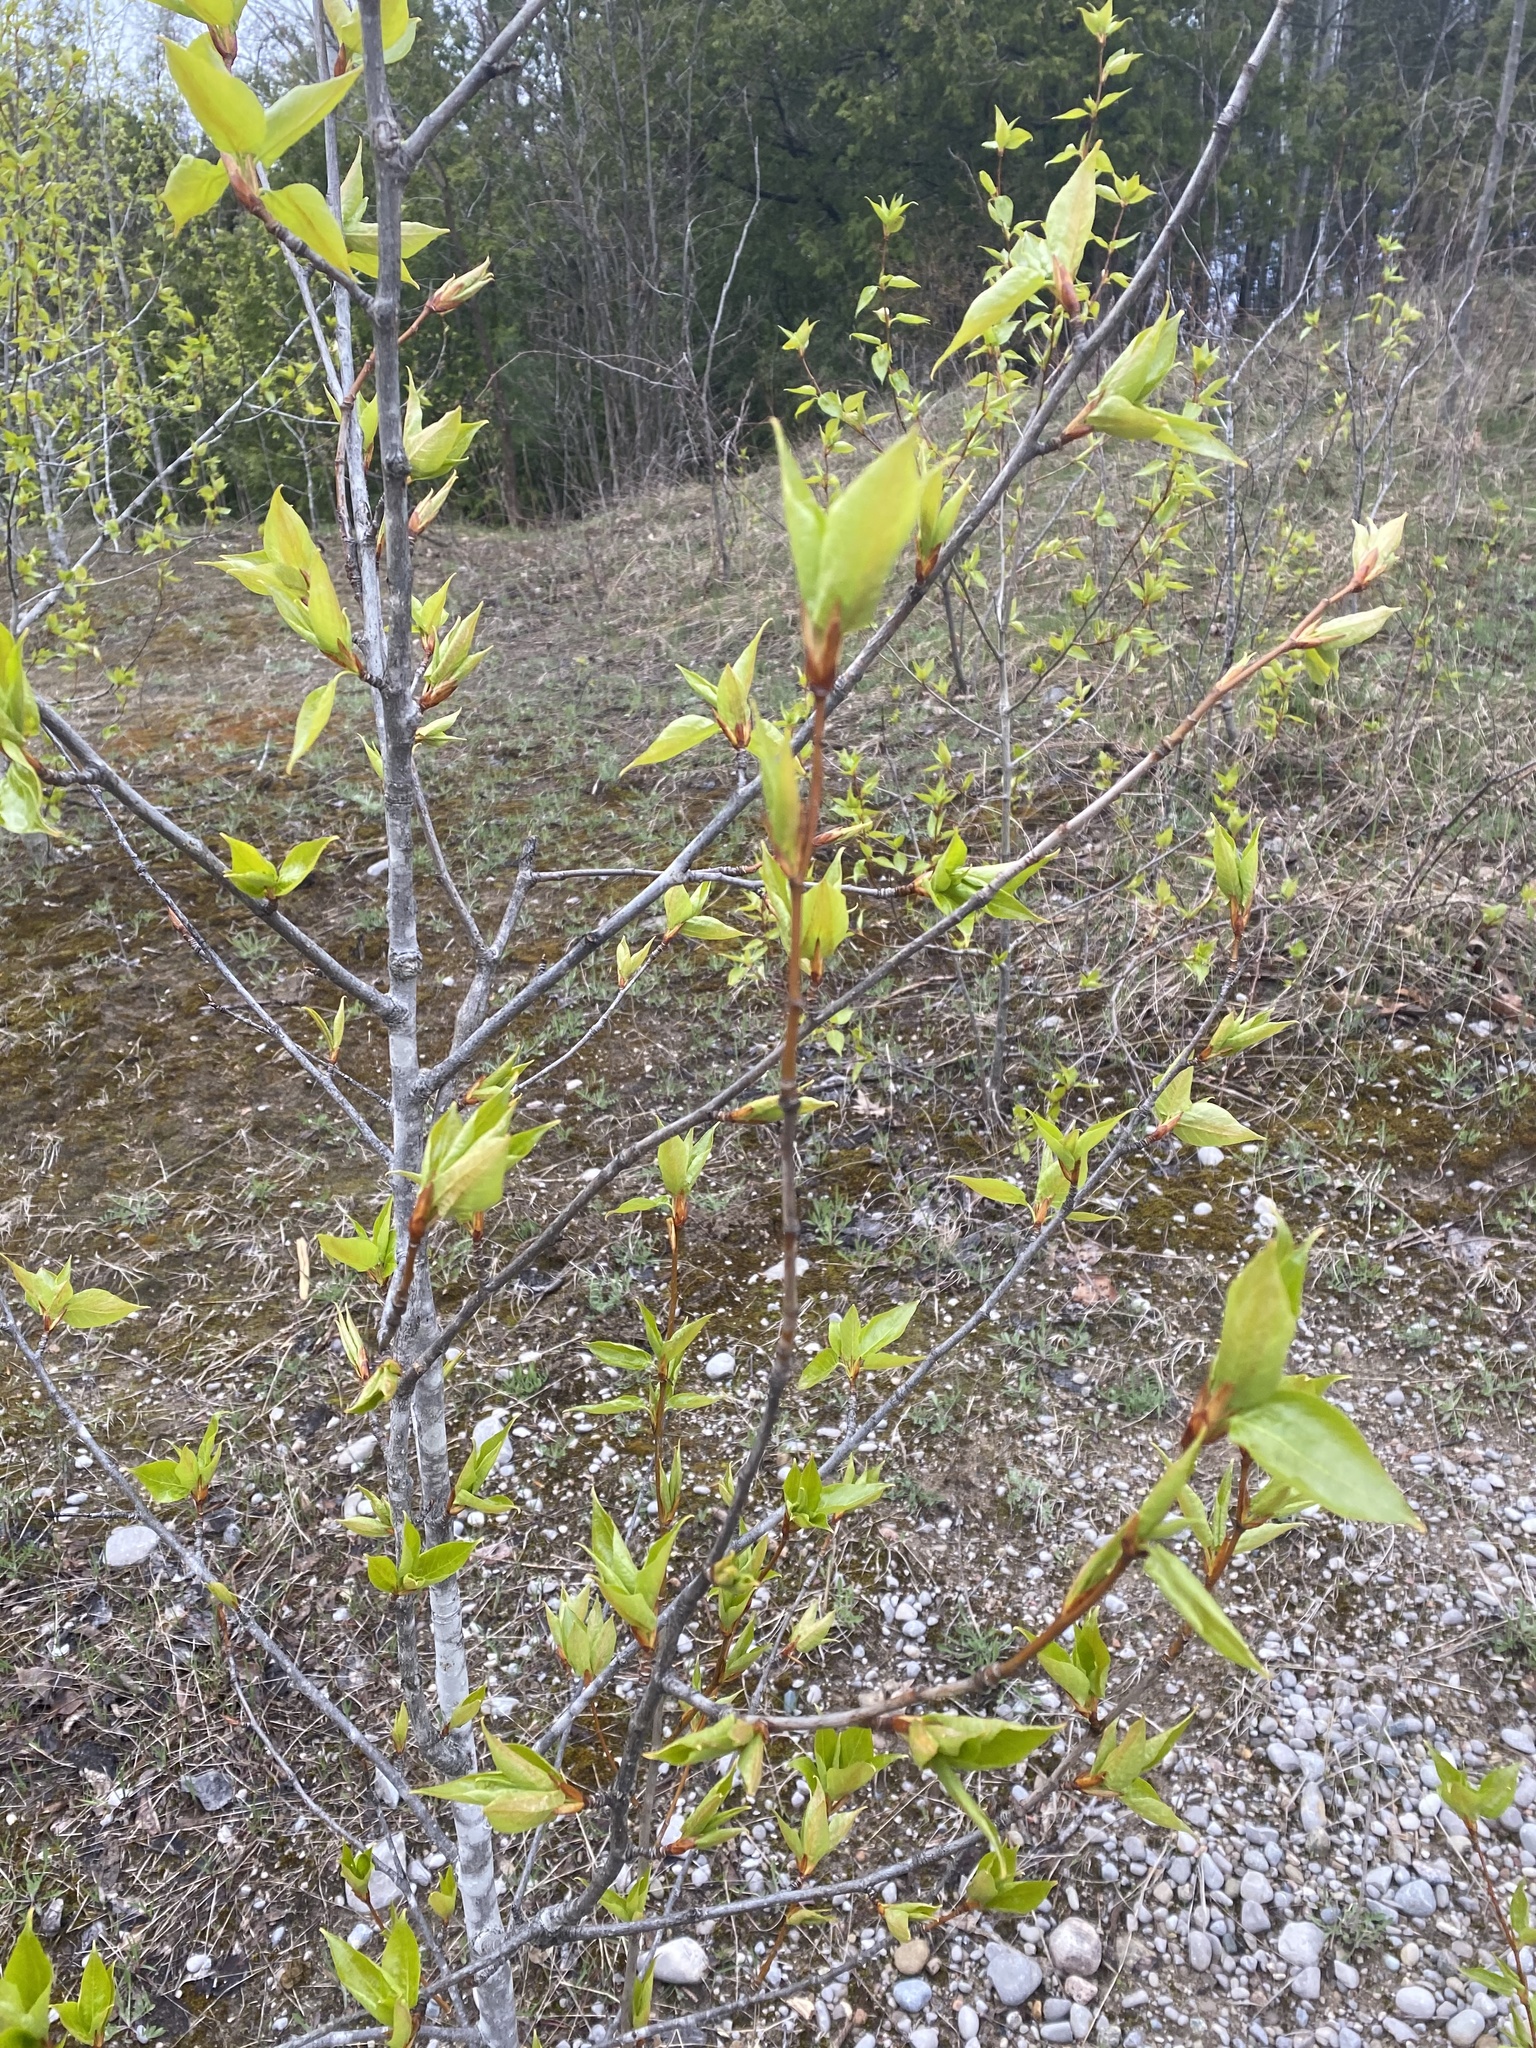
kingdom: Plantae
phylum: Tracheophyta
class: Magnoliopsida
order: Malpighiales
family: Salicaceae
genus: Populus
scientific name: Populus balsamifera
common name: Balsam poplar
